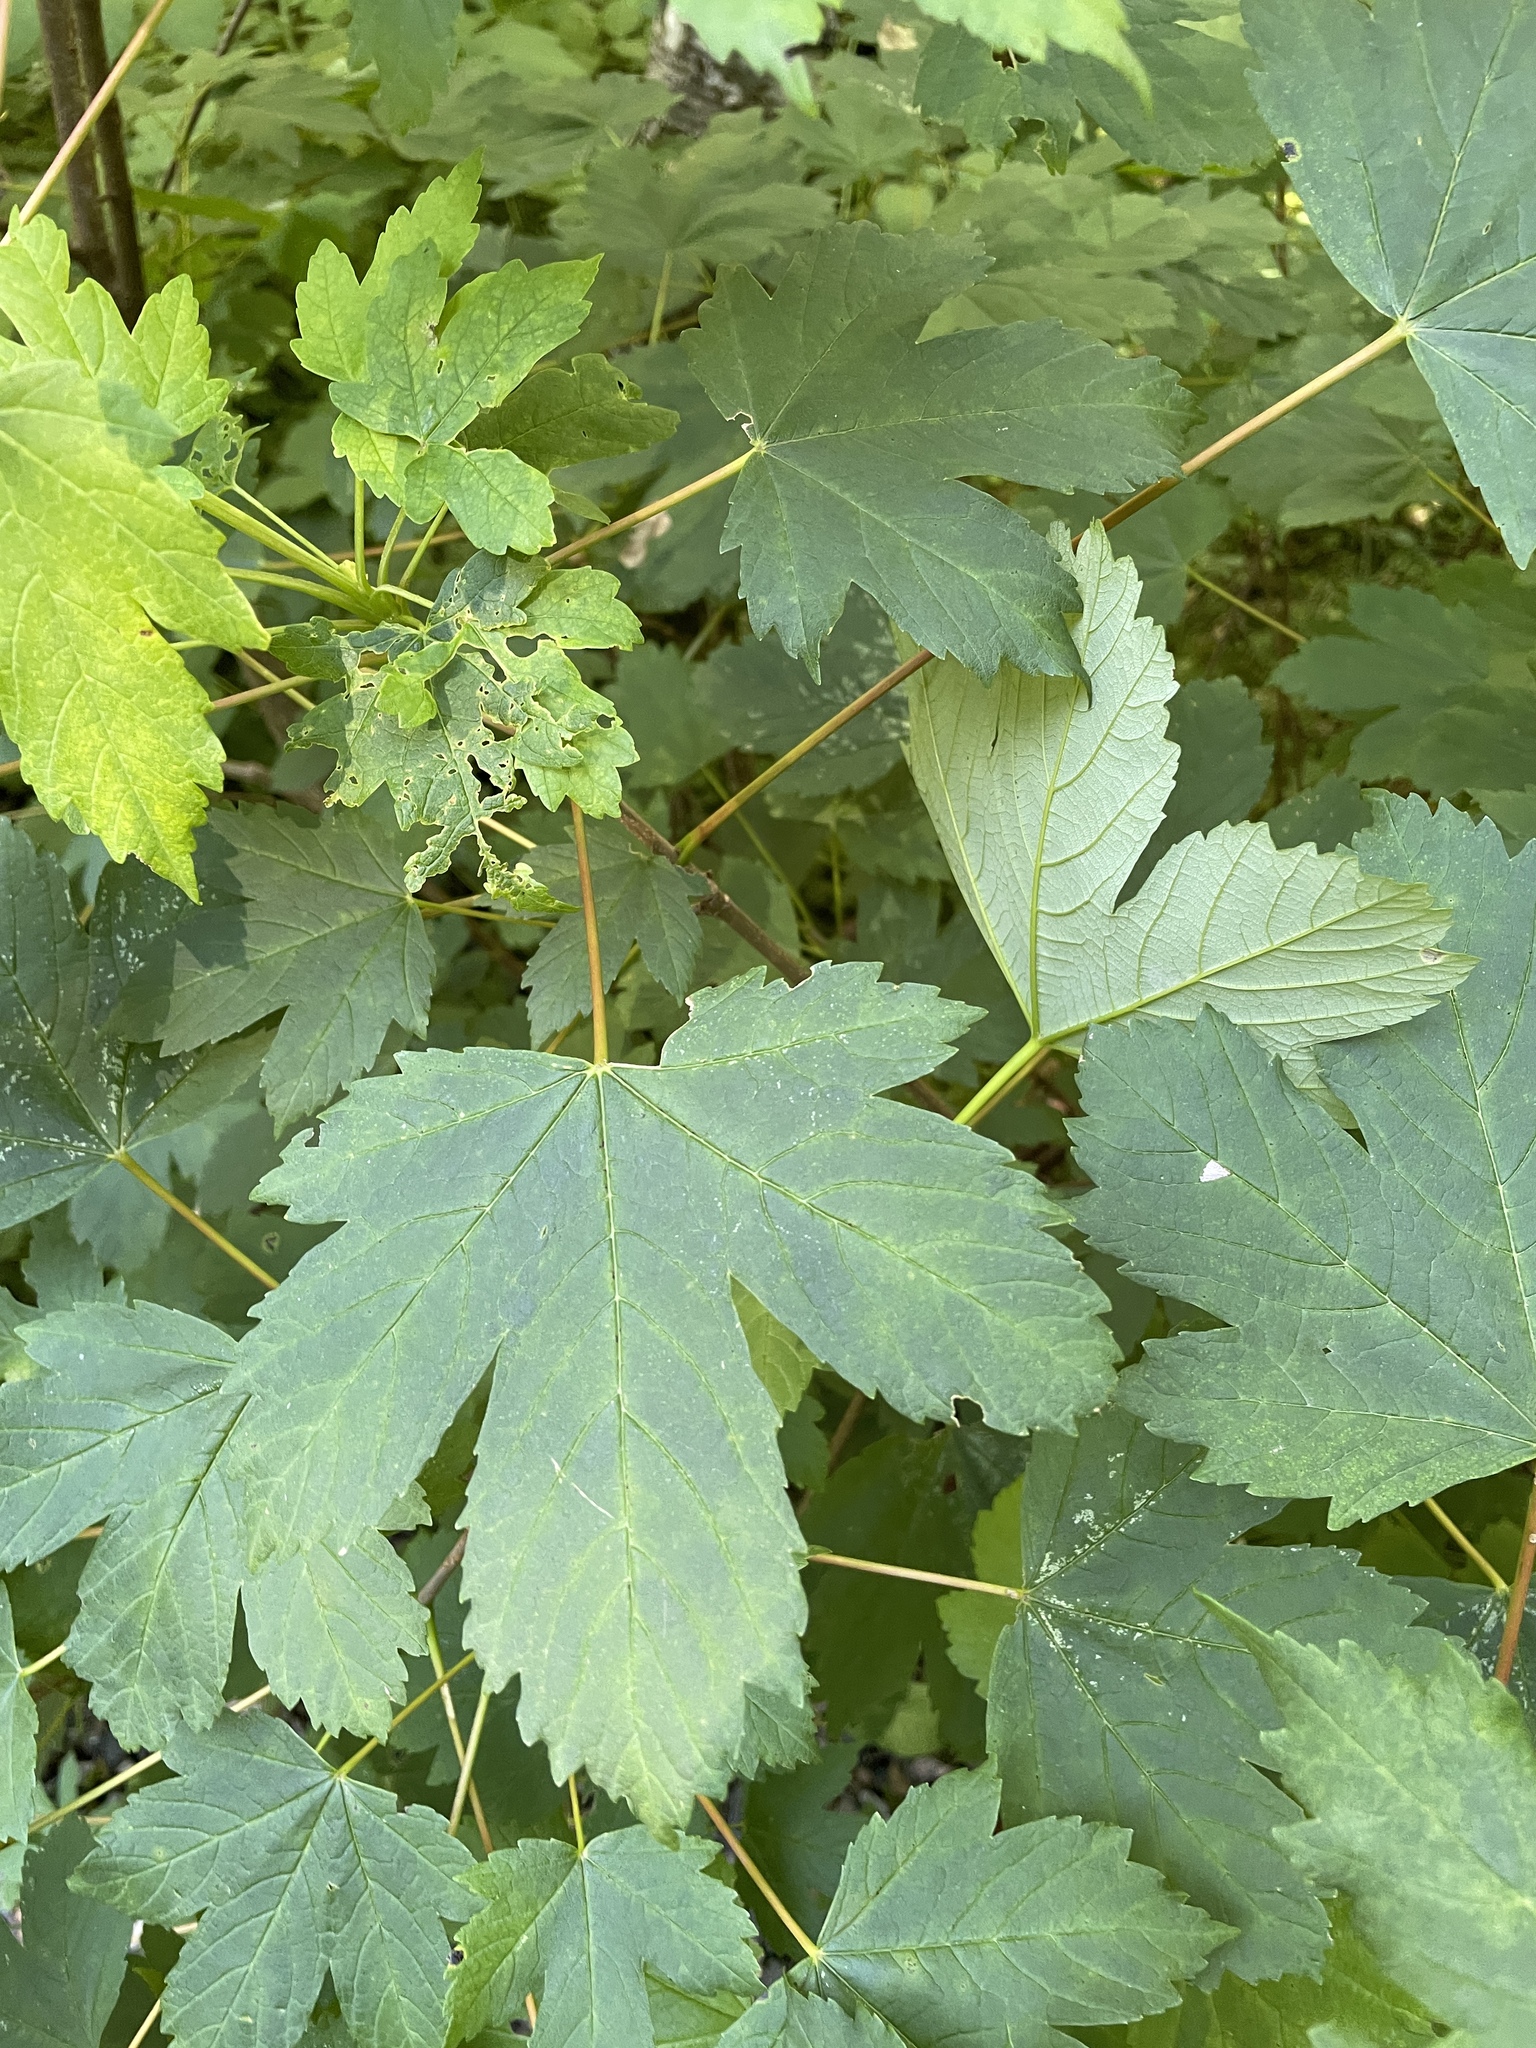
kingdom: Plantae
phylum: Tracheophyta
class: Magnoliopsida
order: Sapindales
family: Sapindaceae
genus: Acer
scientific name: Acer pseudoplatanus
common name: Sycamore
